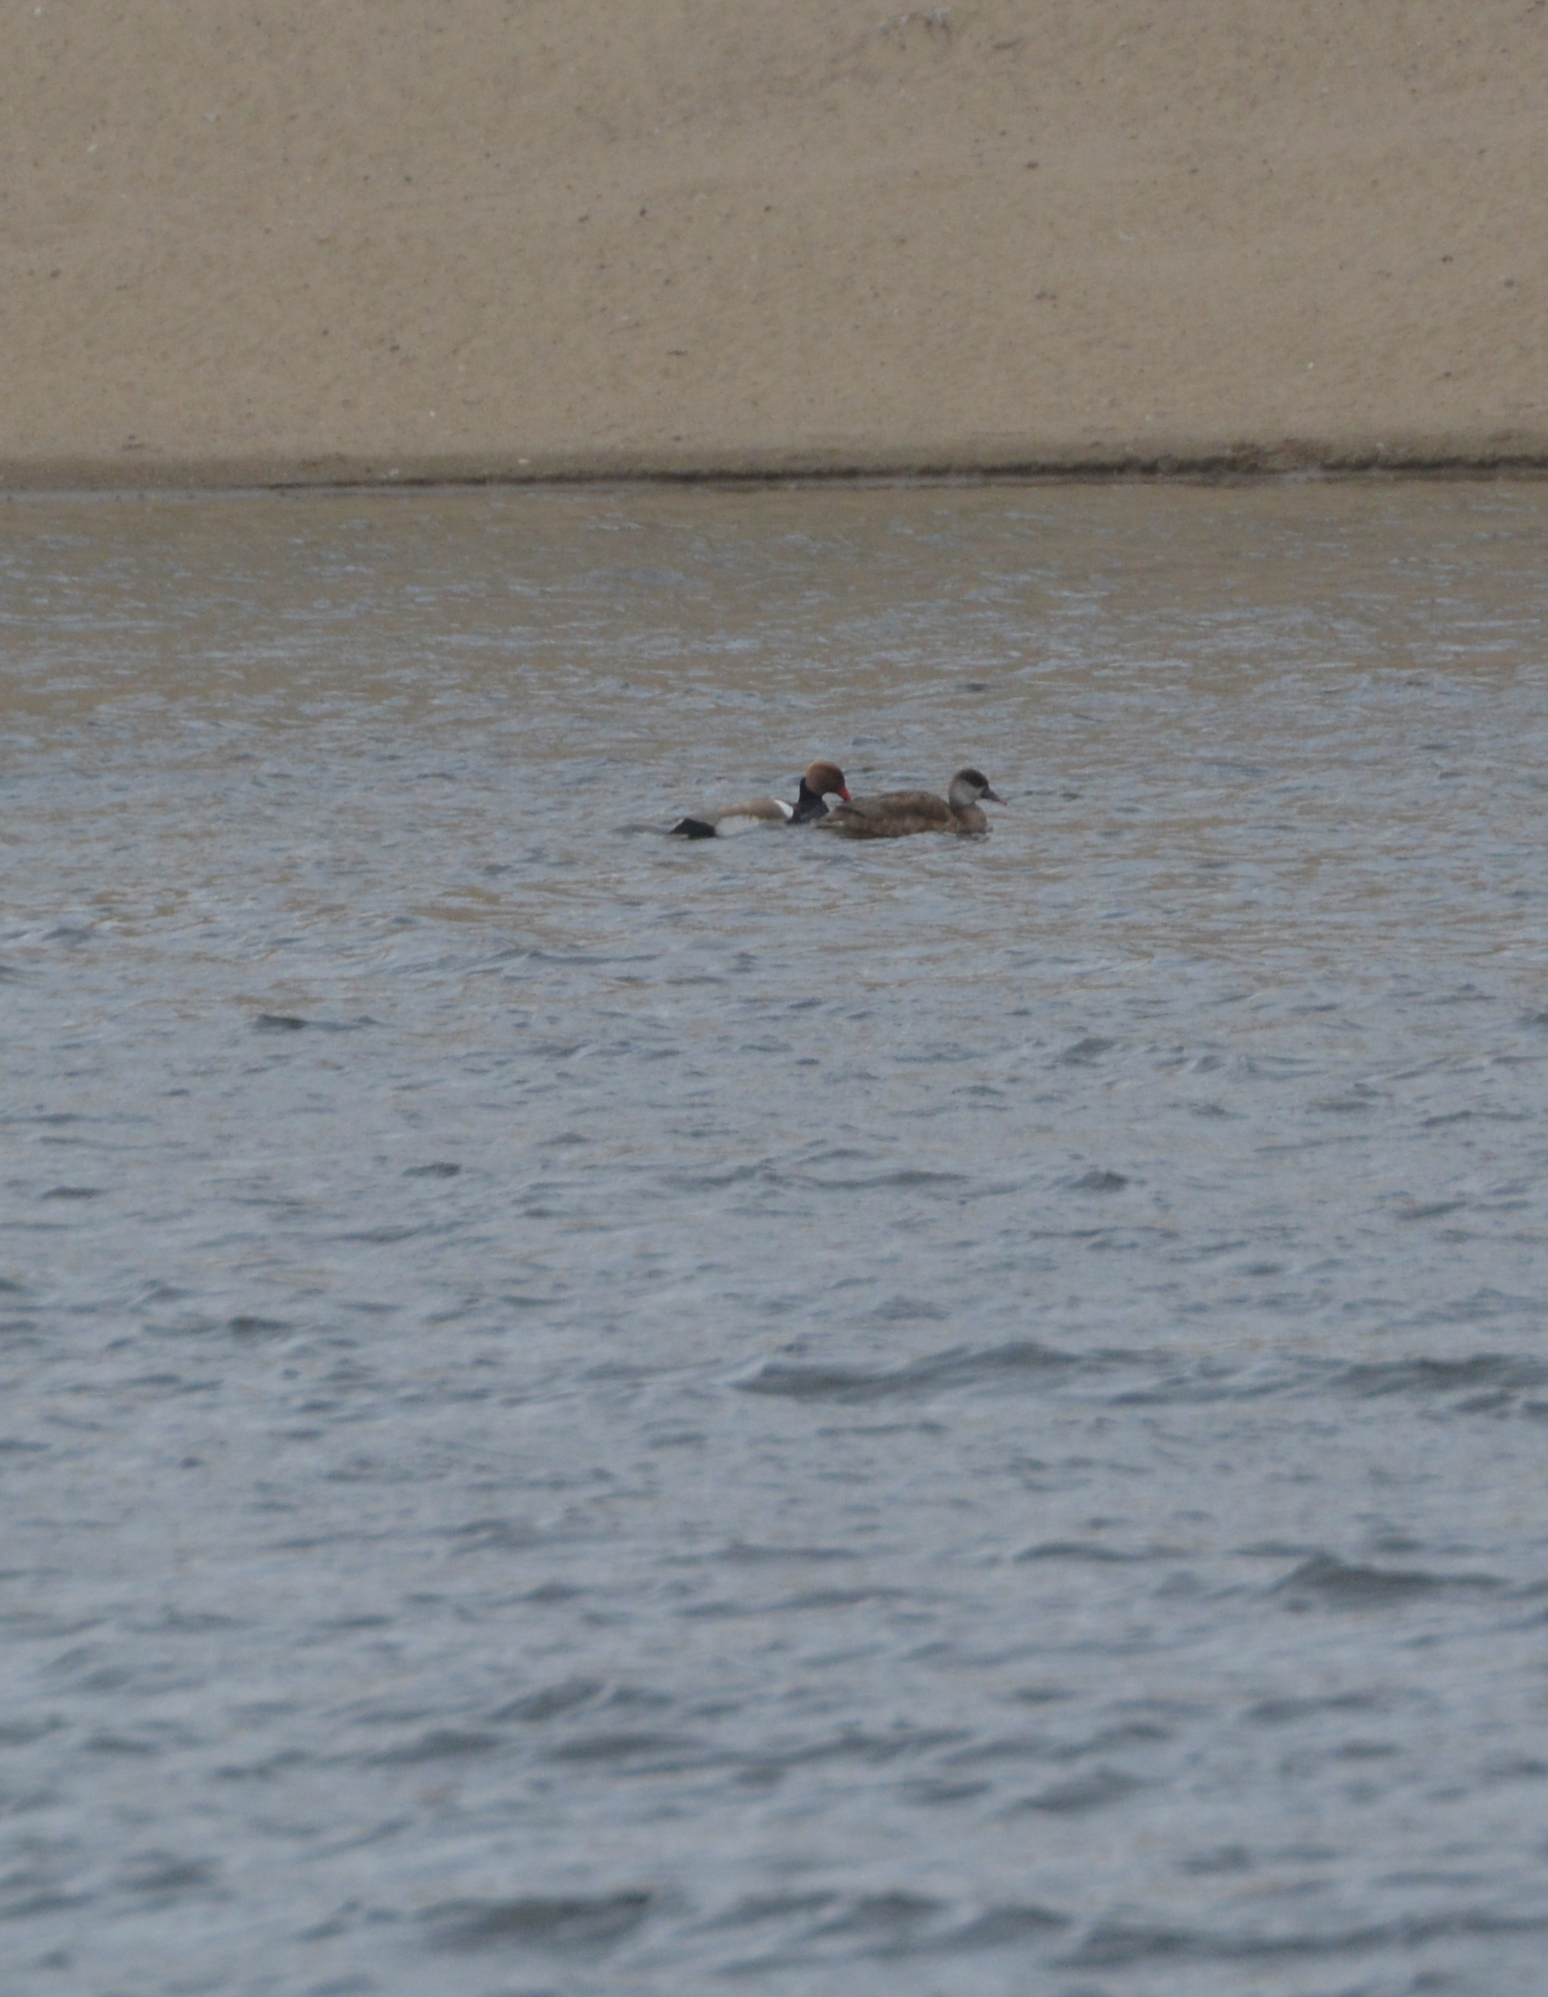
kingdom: Animalia
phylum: Chordata
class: Aves
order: Anseriformes
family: Anatidae
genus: Netta
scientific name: Netta rufina
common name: Red-crested pochard
